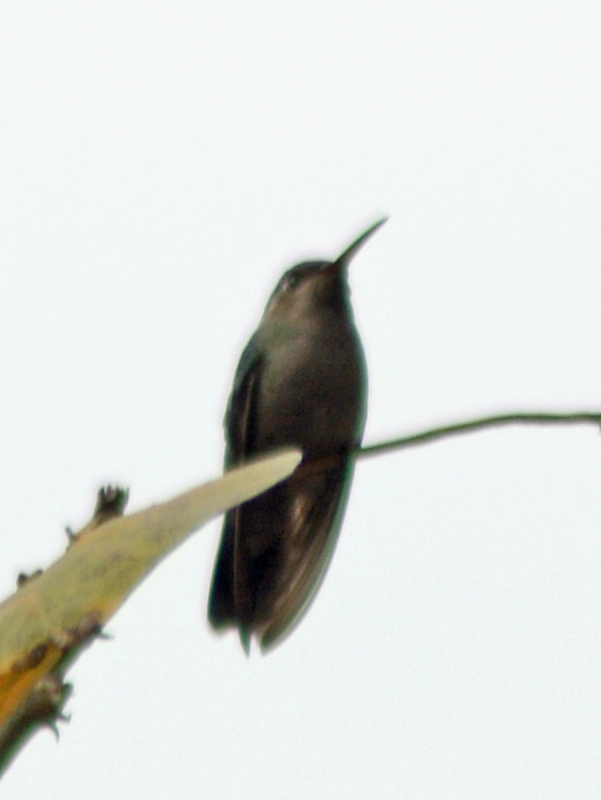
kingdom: Animalia
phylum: Chordata
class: Aves
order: Apodiformes
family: Trochilidae
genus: Cynanthus
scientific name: Cynanthus latirostris
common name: Broad-billed hummingbird
